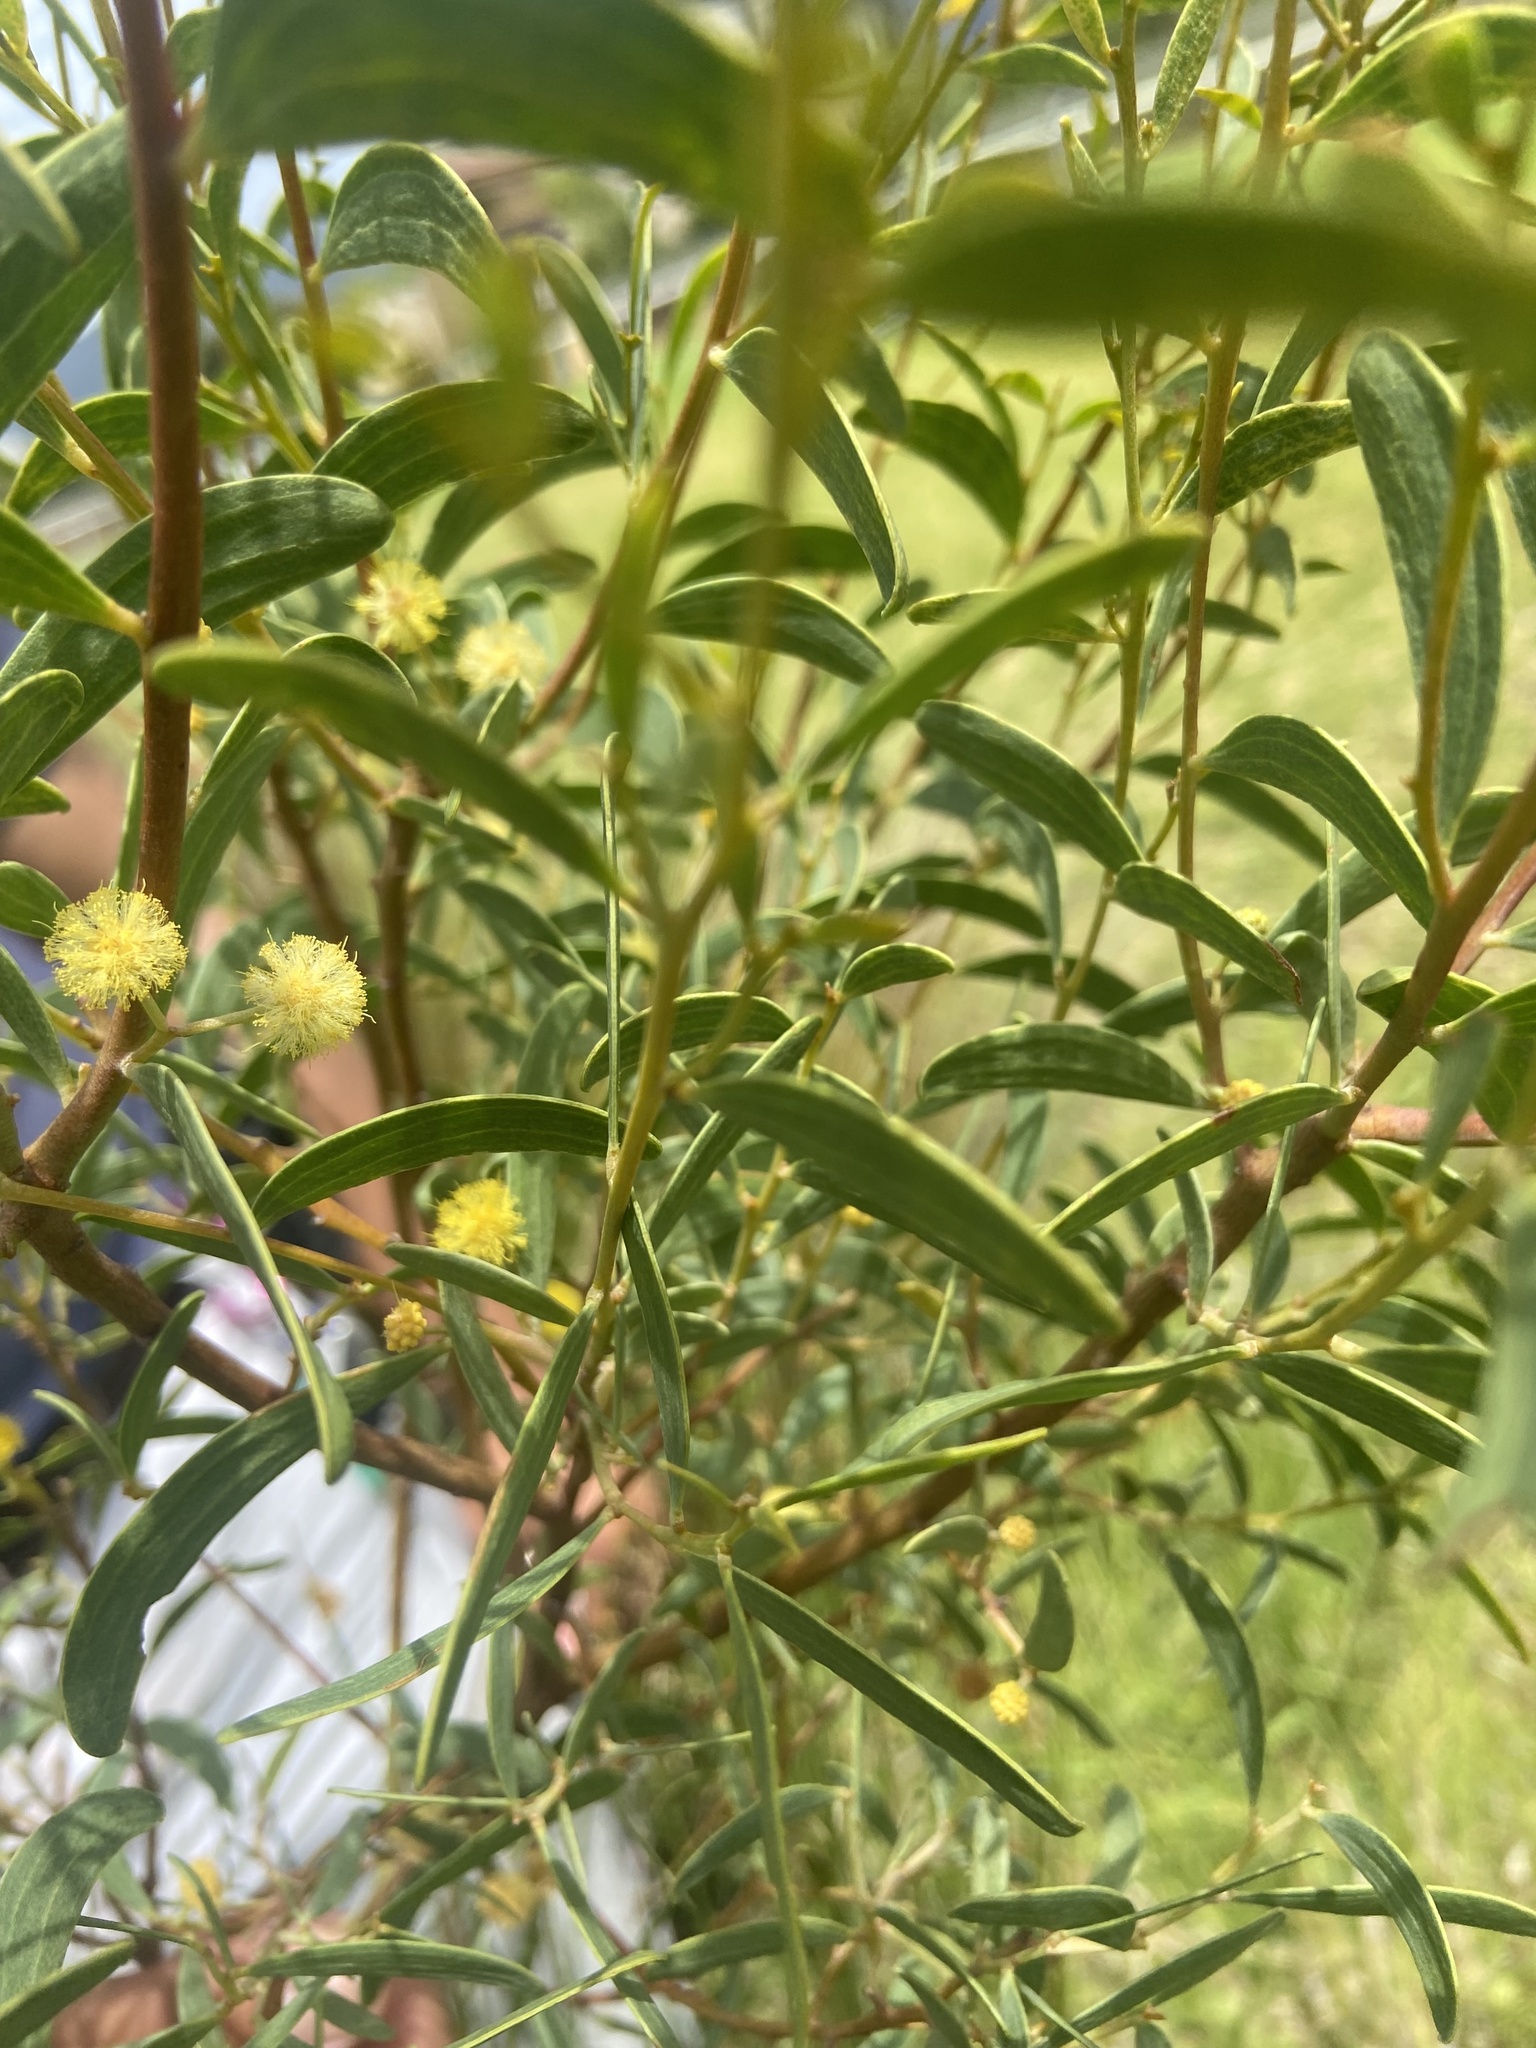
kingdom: Plantae
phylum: Tracheophyta
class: Magnoliopsida
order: Fabales
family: Fabaceae
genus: Acacia
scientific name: Acacia cyclops
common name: Coastal wattle
